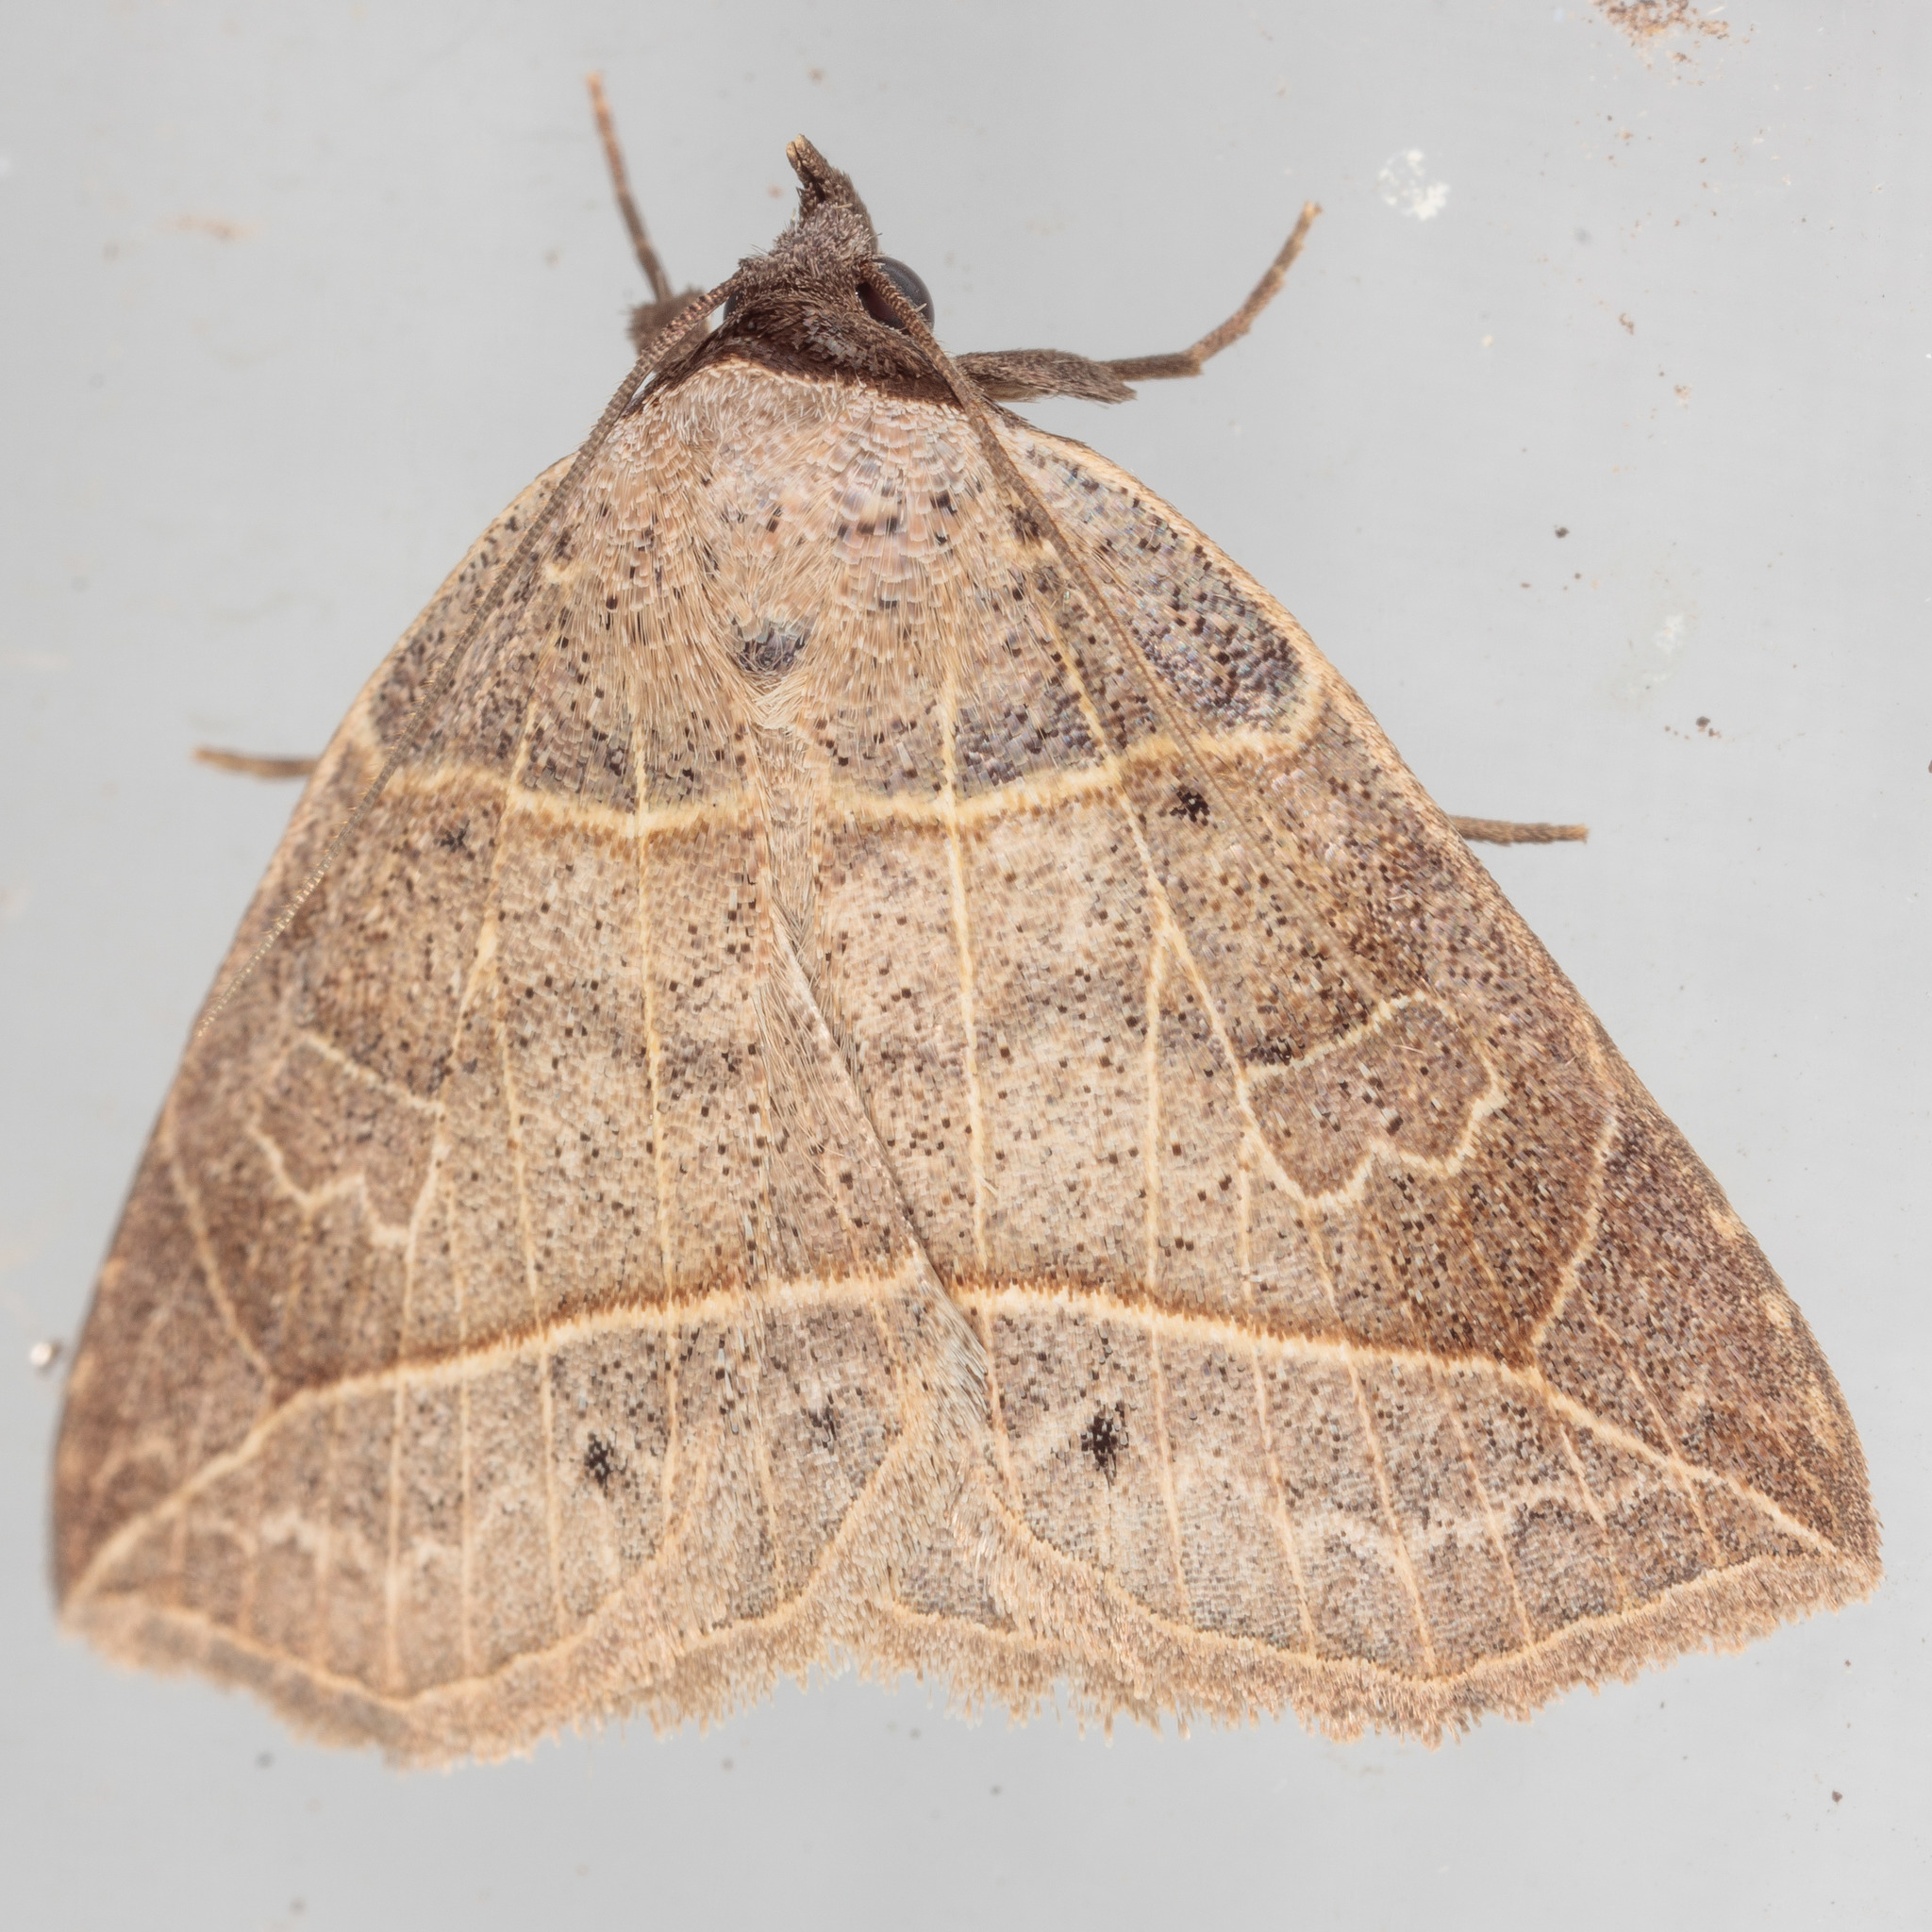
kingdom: Animalia
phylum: Arthropoda
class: Insecta
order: Lepidoptera
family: Erebidae
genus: Isogona
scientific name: Isogona tenuis
